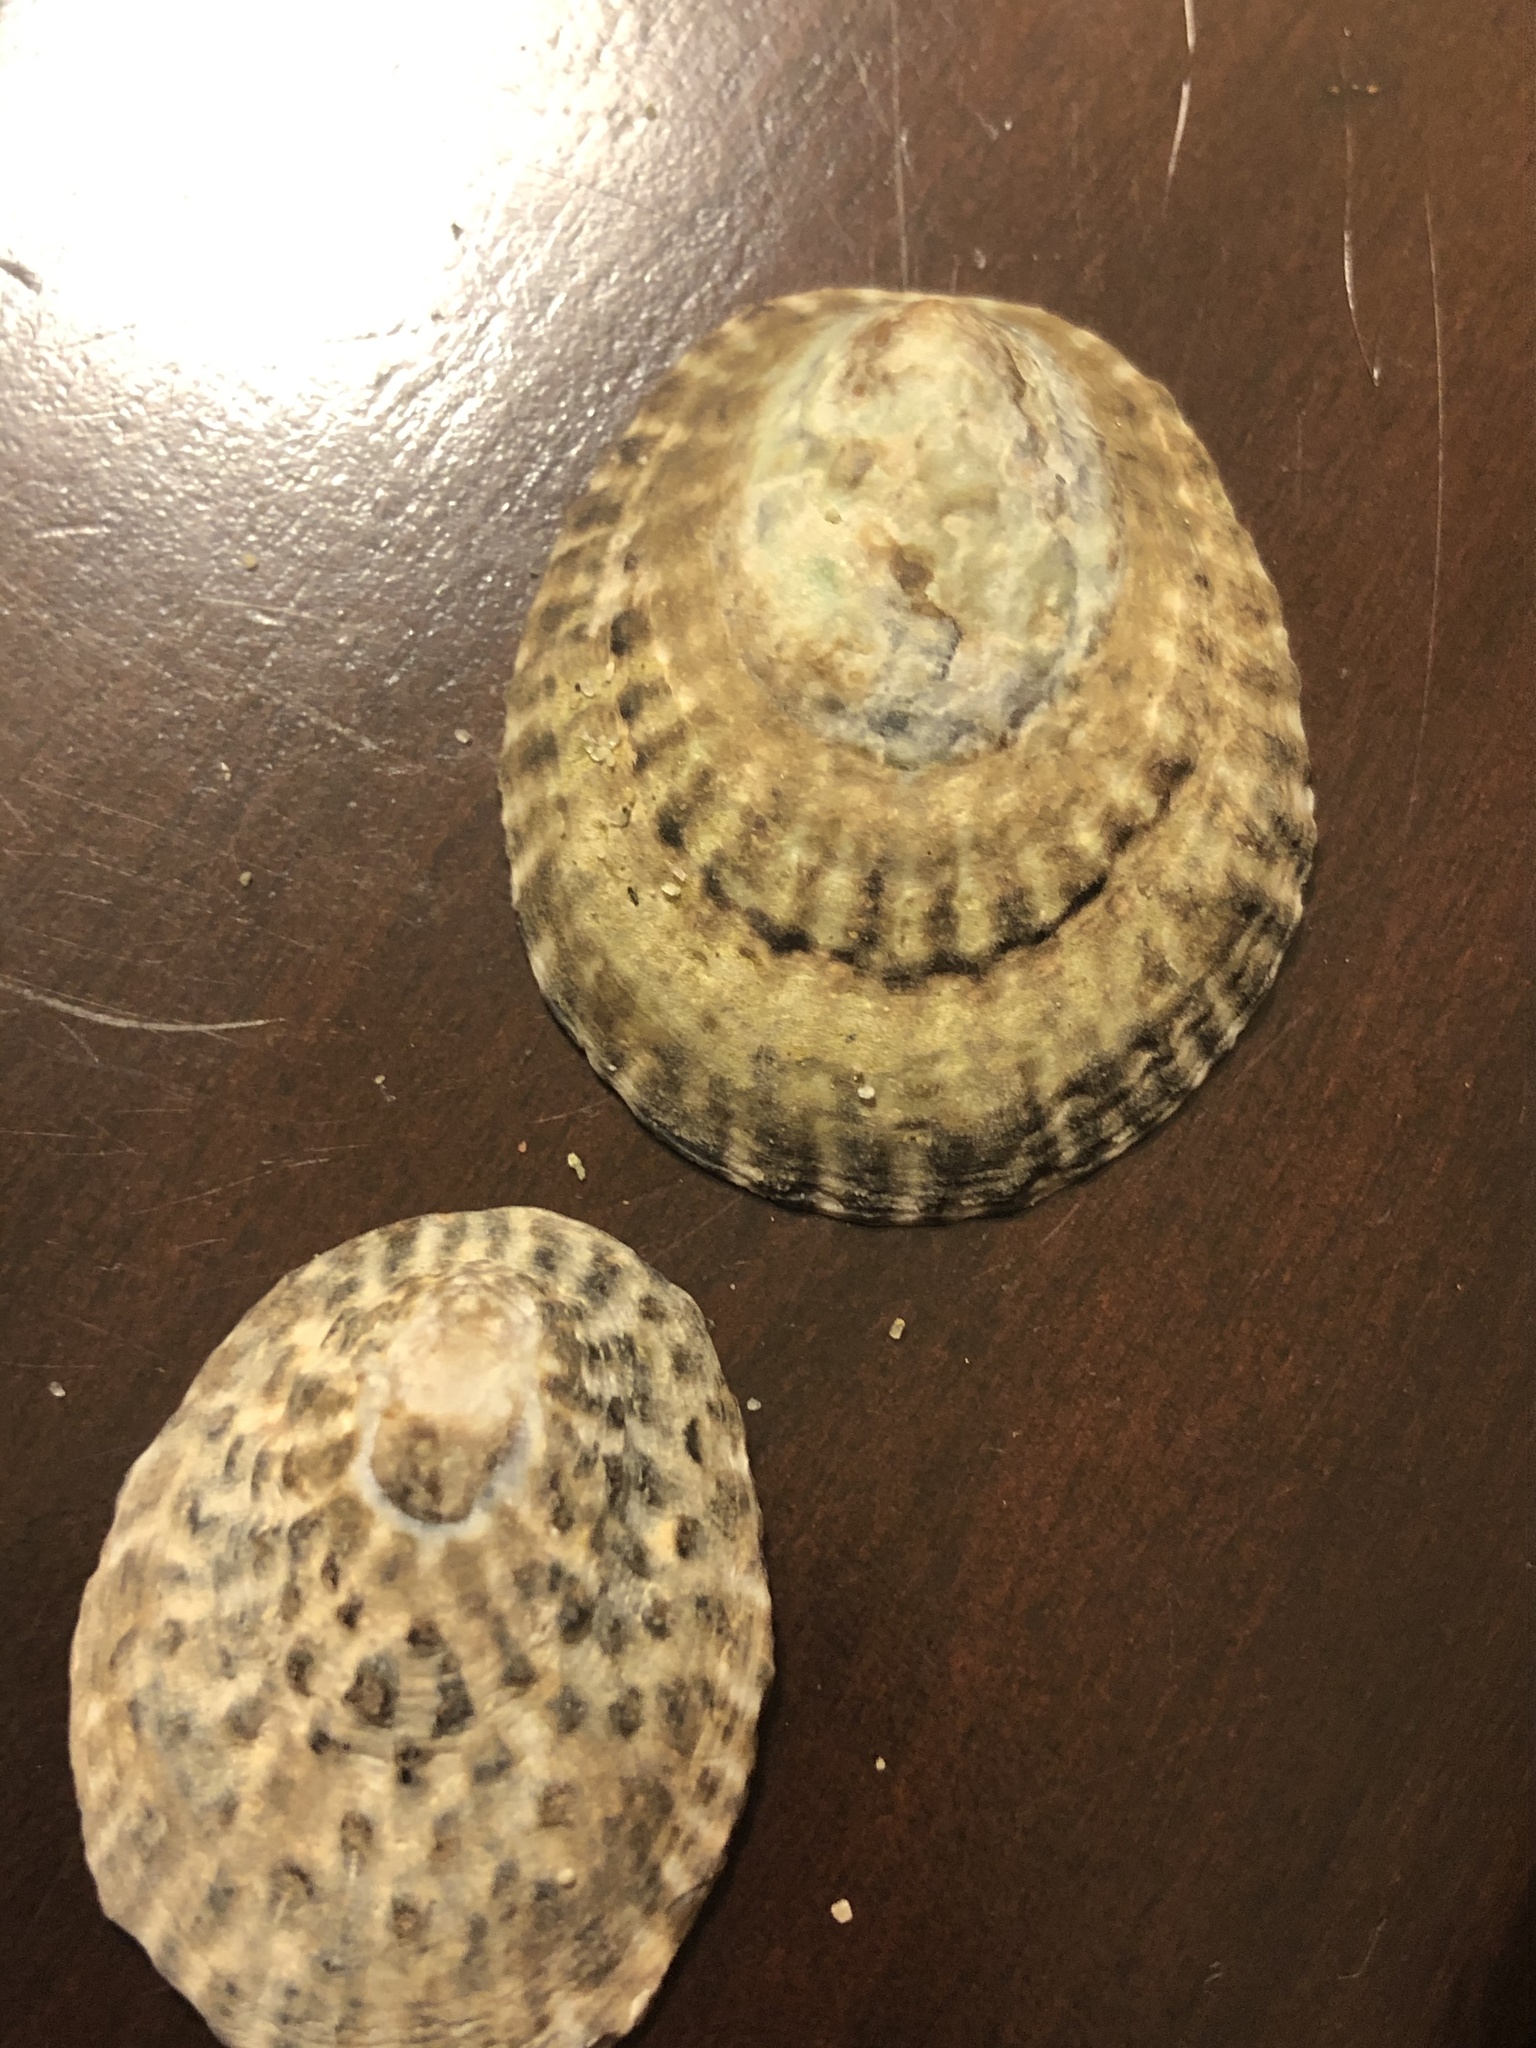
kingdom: Animalia
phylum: Mollusca
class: Gastropoda
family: Lottiidae
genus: Lottia
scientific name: Lottia gigantea
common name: Owl limpet
